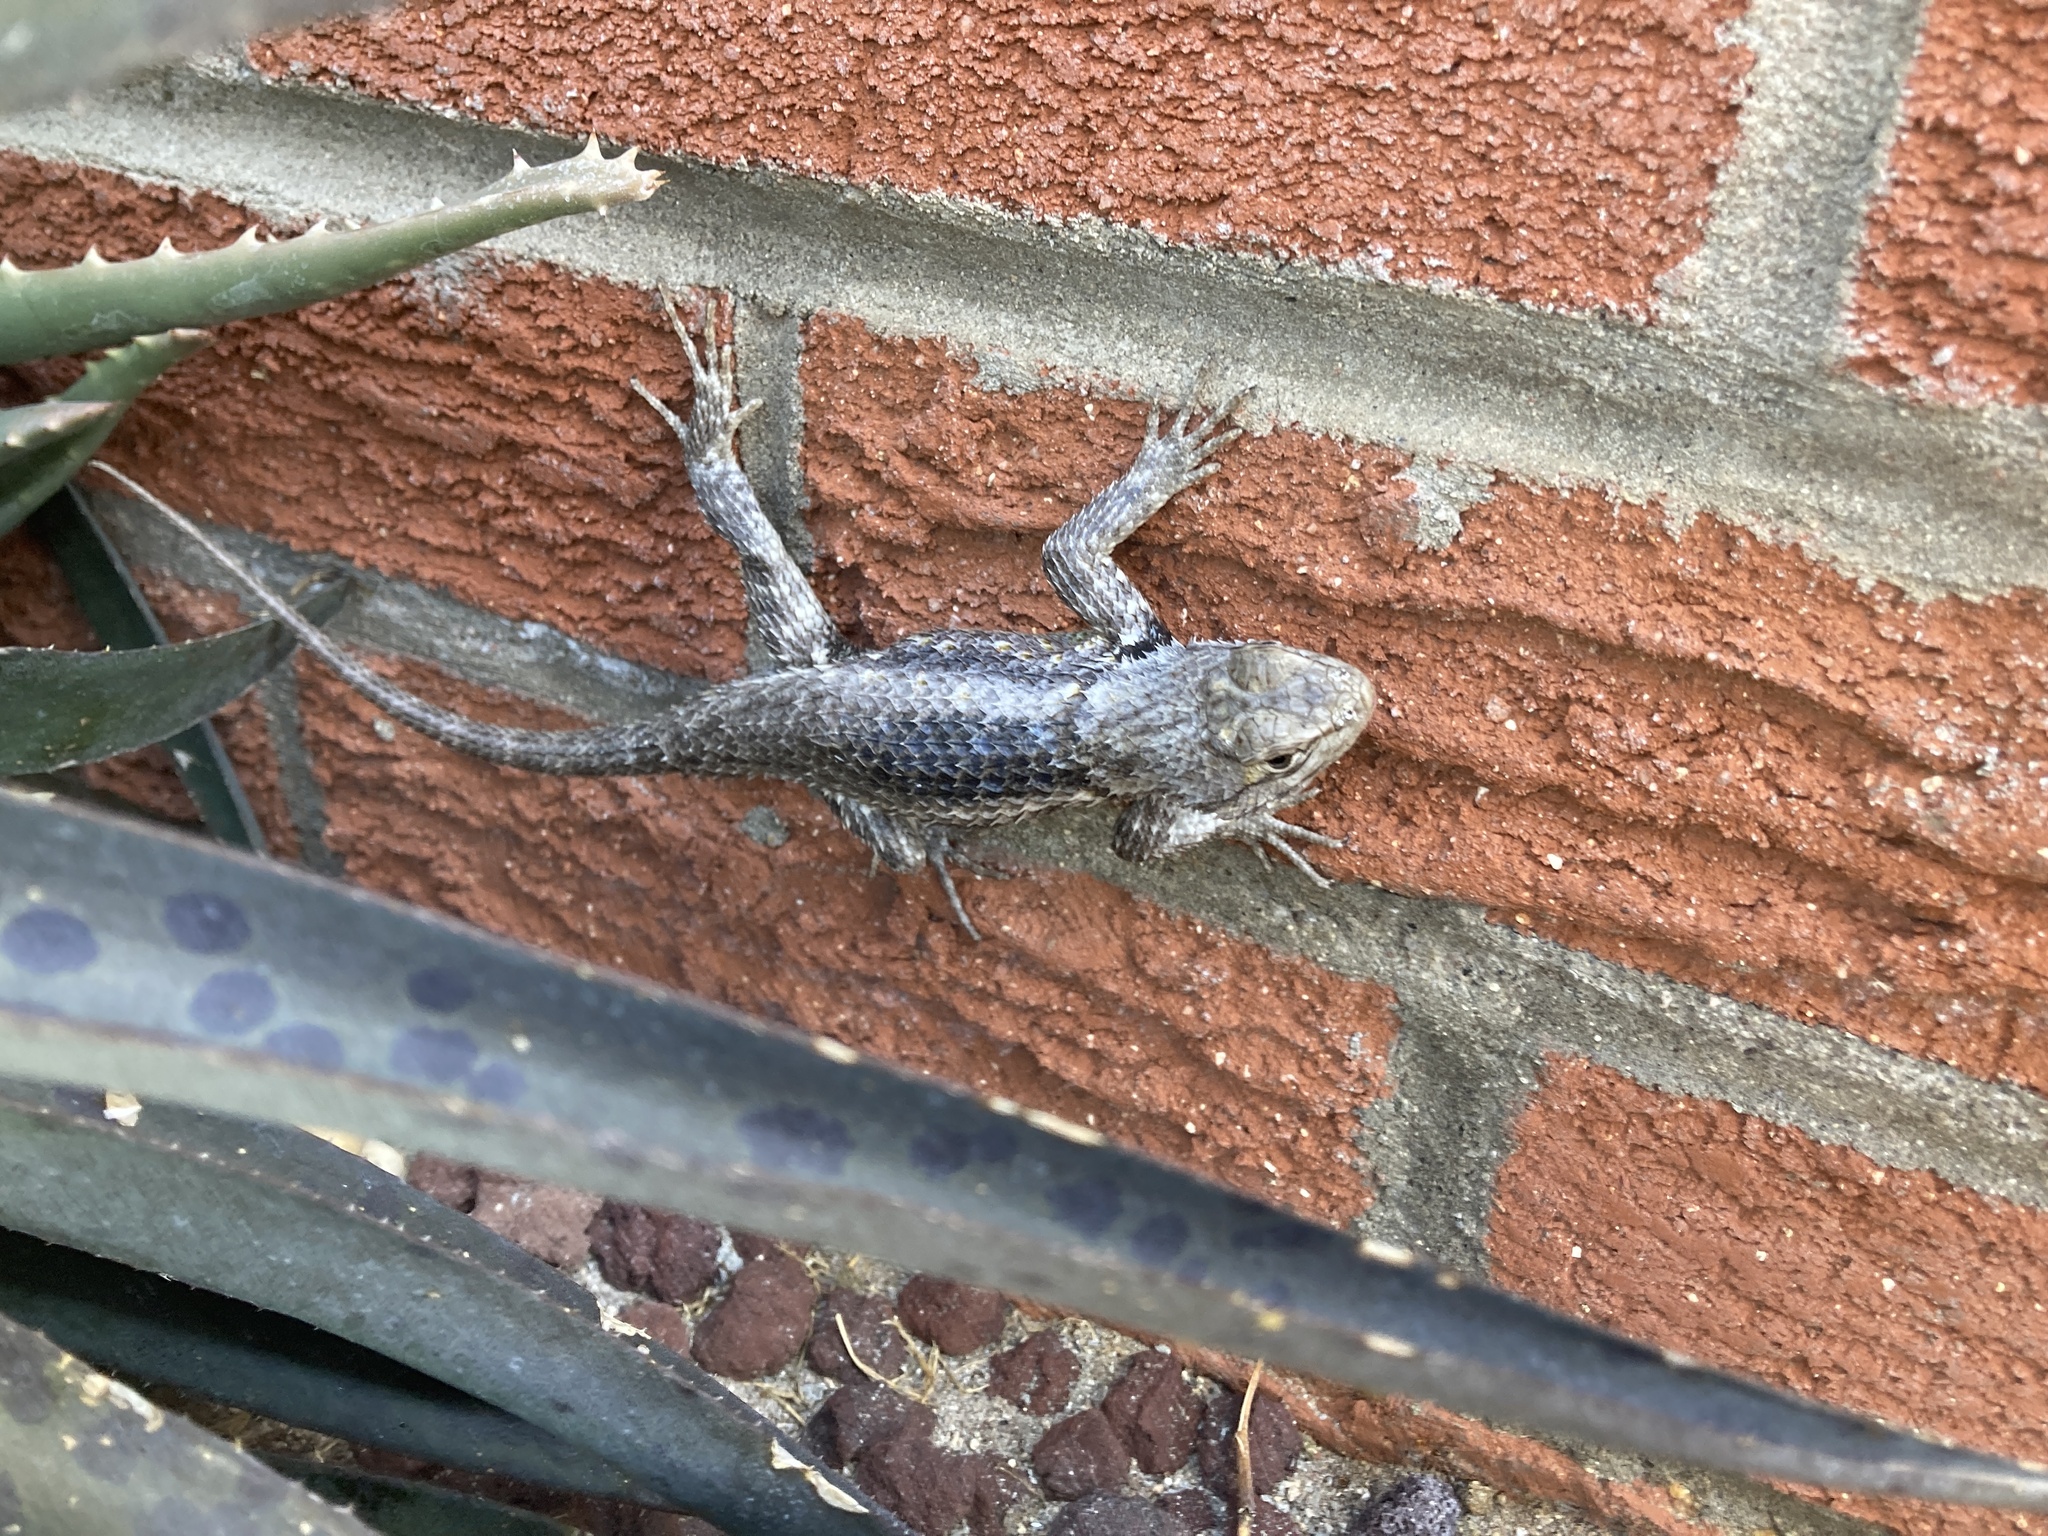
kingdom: Animalia
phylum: Chordata
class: Squamata
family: Phrynosomatidae
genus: Sceloporus
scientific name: Sceloporus magister
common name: Desert spiny lizard
